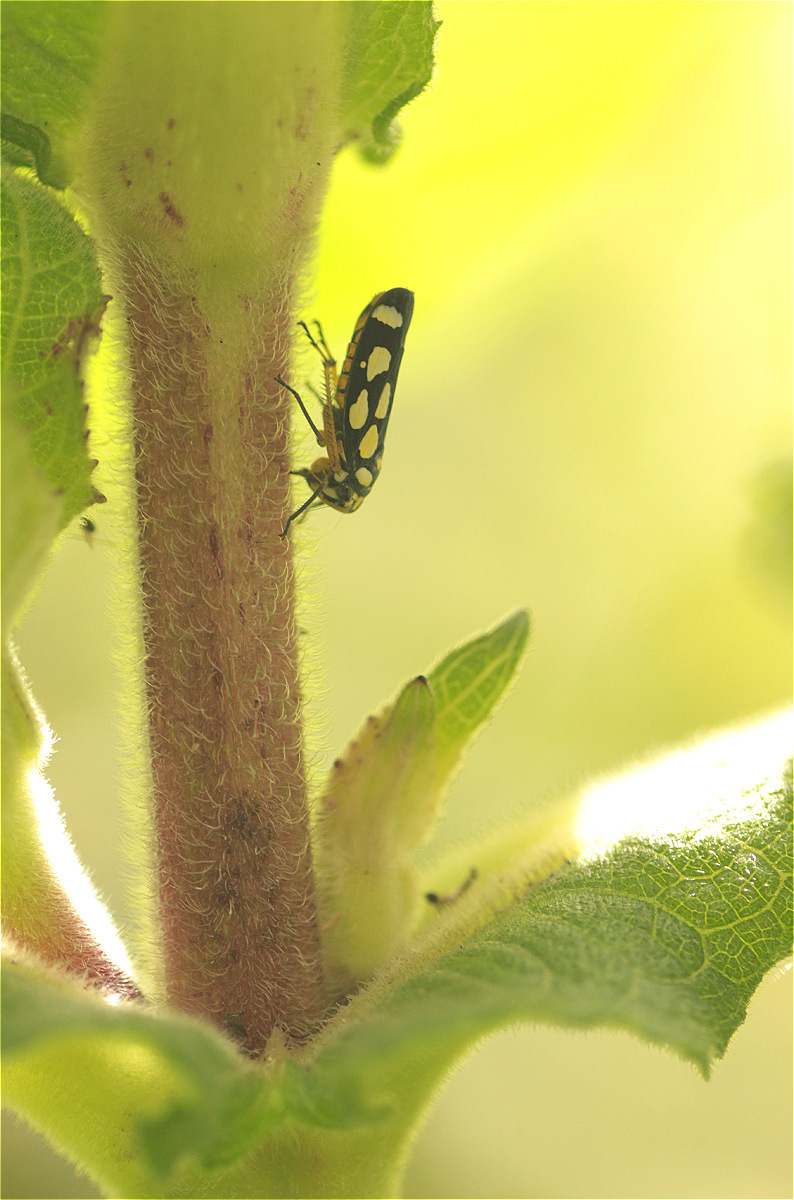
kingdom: Animalia
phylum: Arthropoda
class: Insecta
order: Hemiptera
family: Cicadellidae
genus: Stehlikiana
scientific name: Stehlikiana crassa
